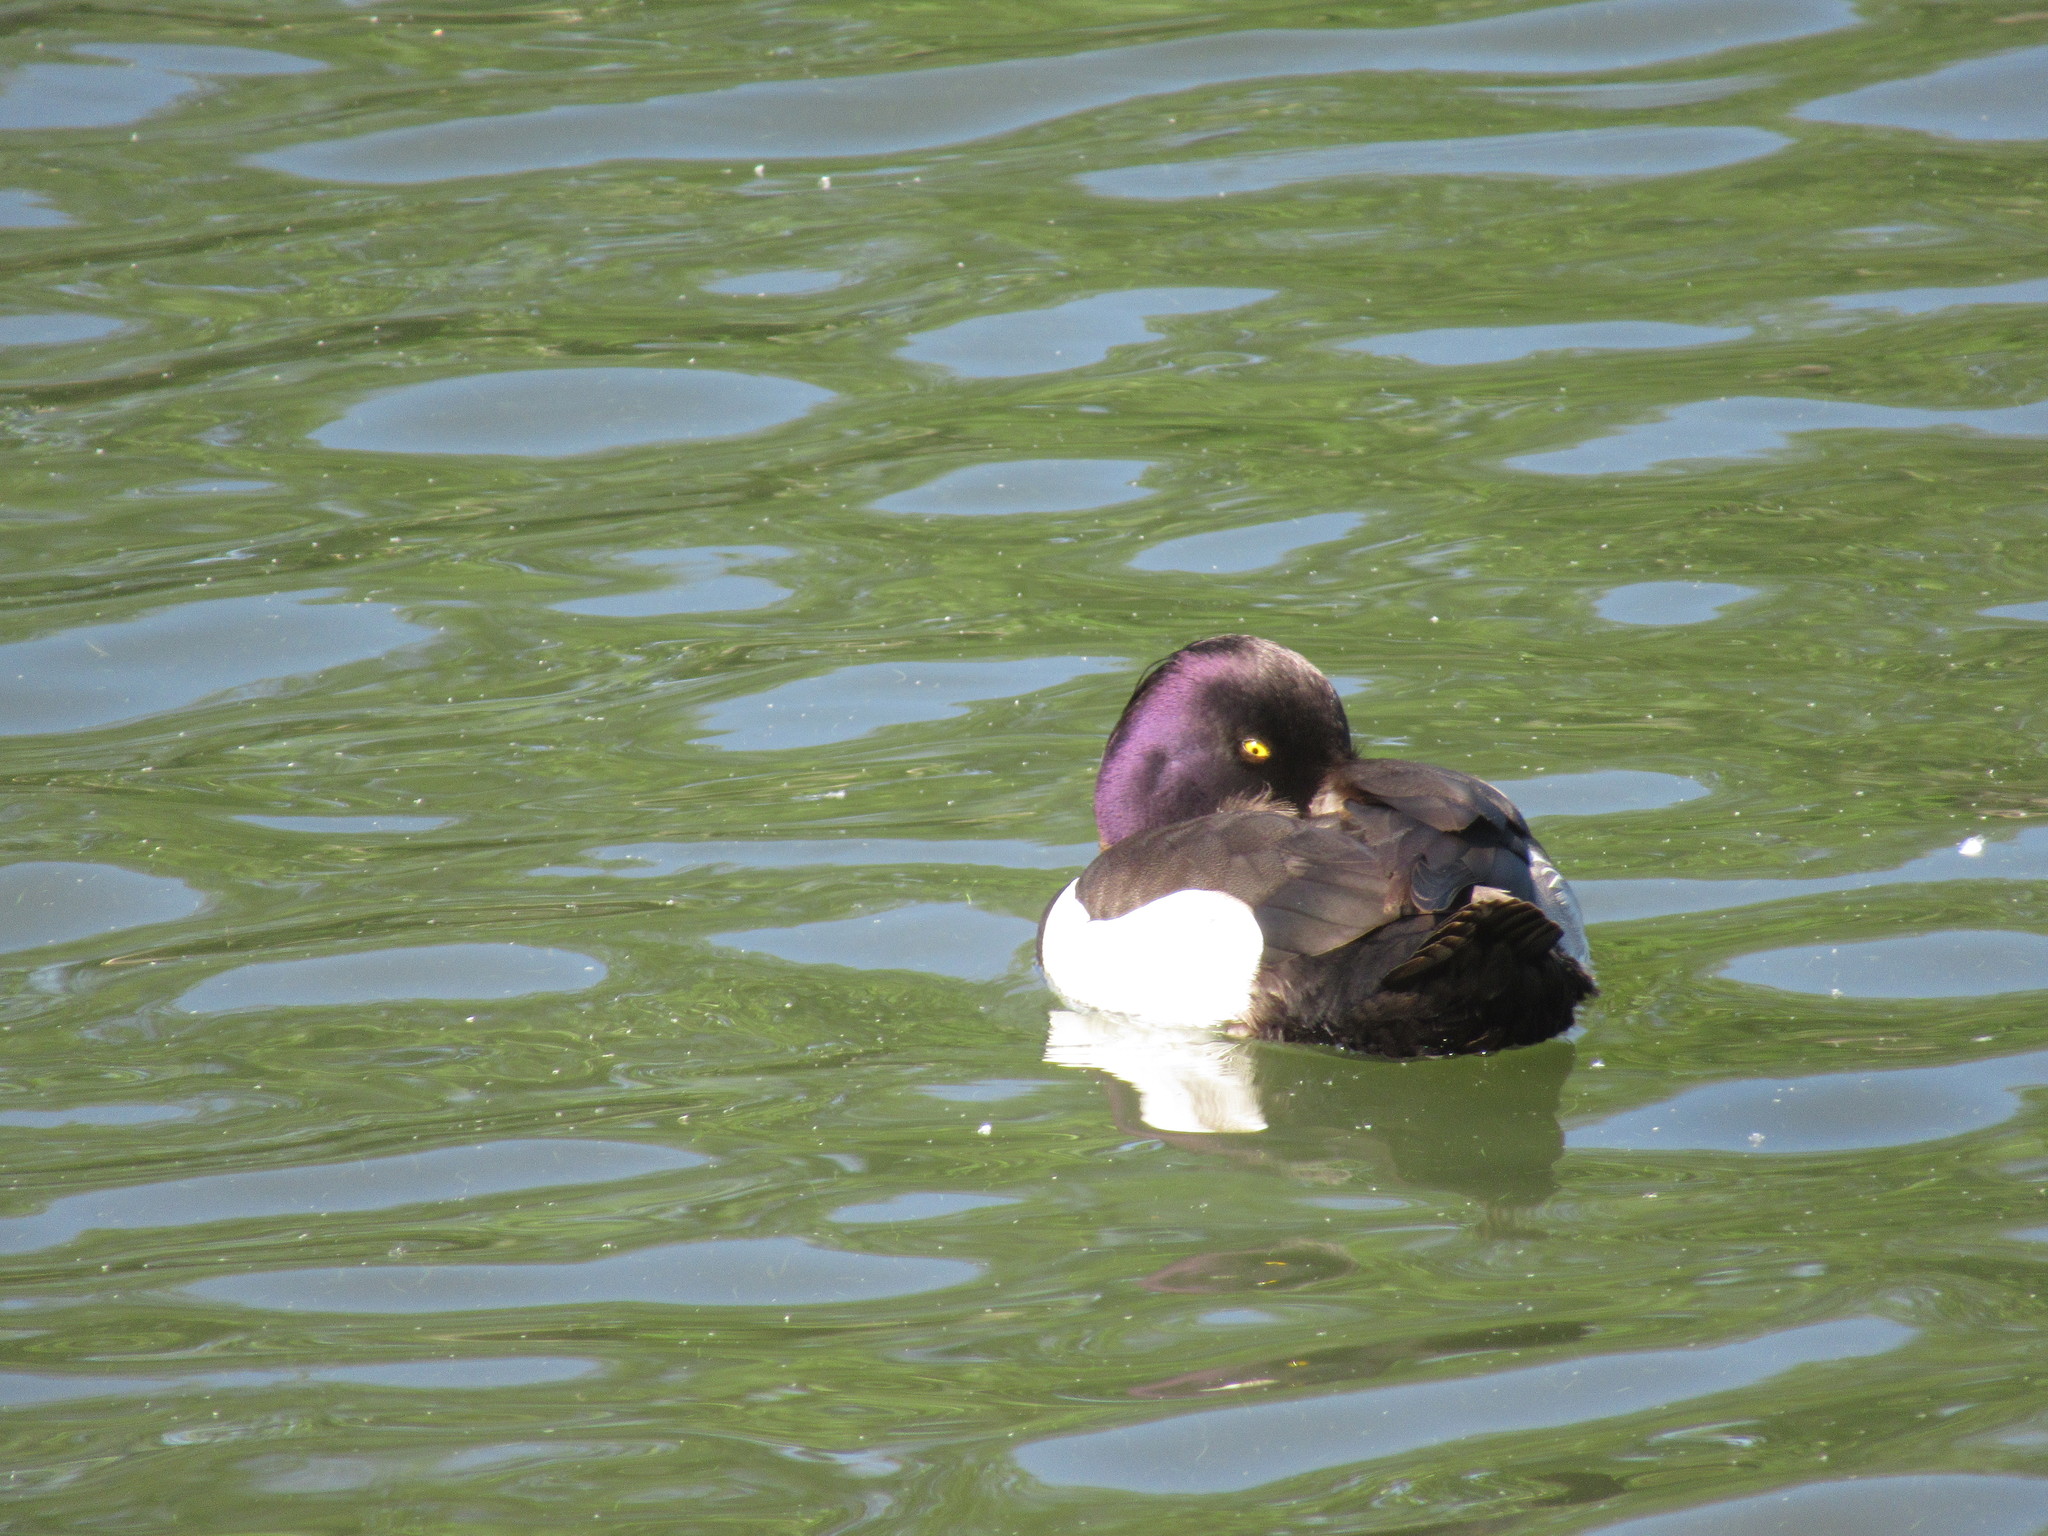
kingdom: Animalia
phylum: Chordata
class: Aves
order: Anseriformes
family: Anatidae
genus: Aythya
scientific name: Aythya fuligula
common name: Tufted duck
